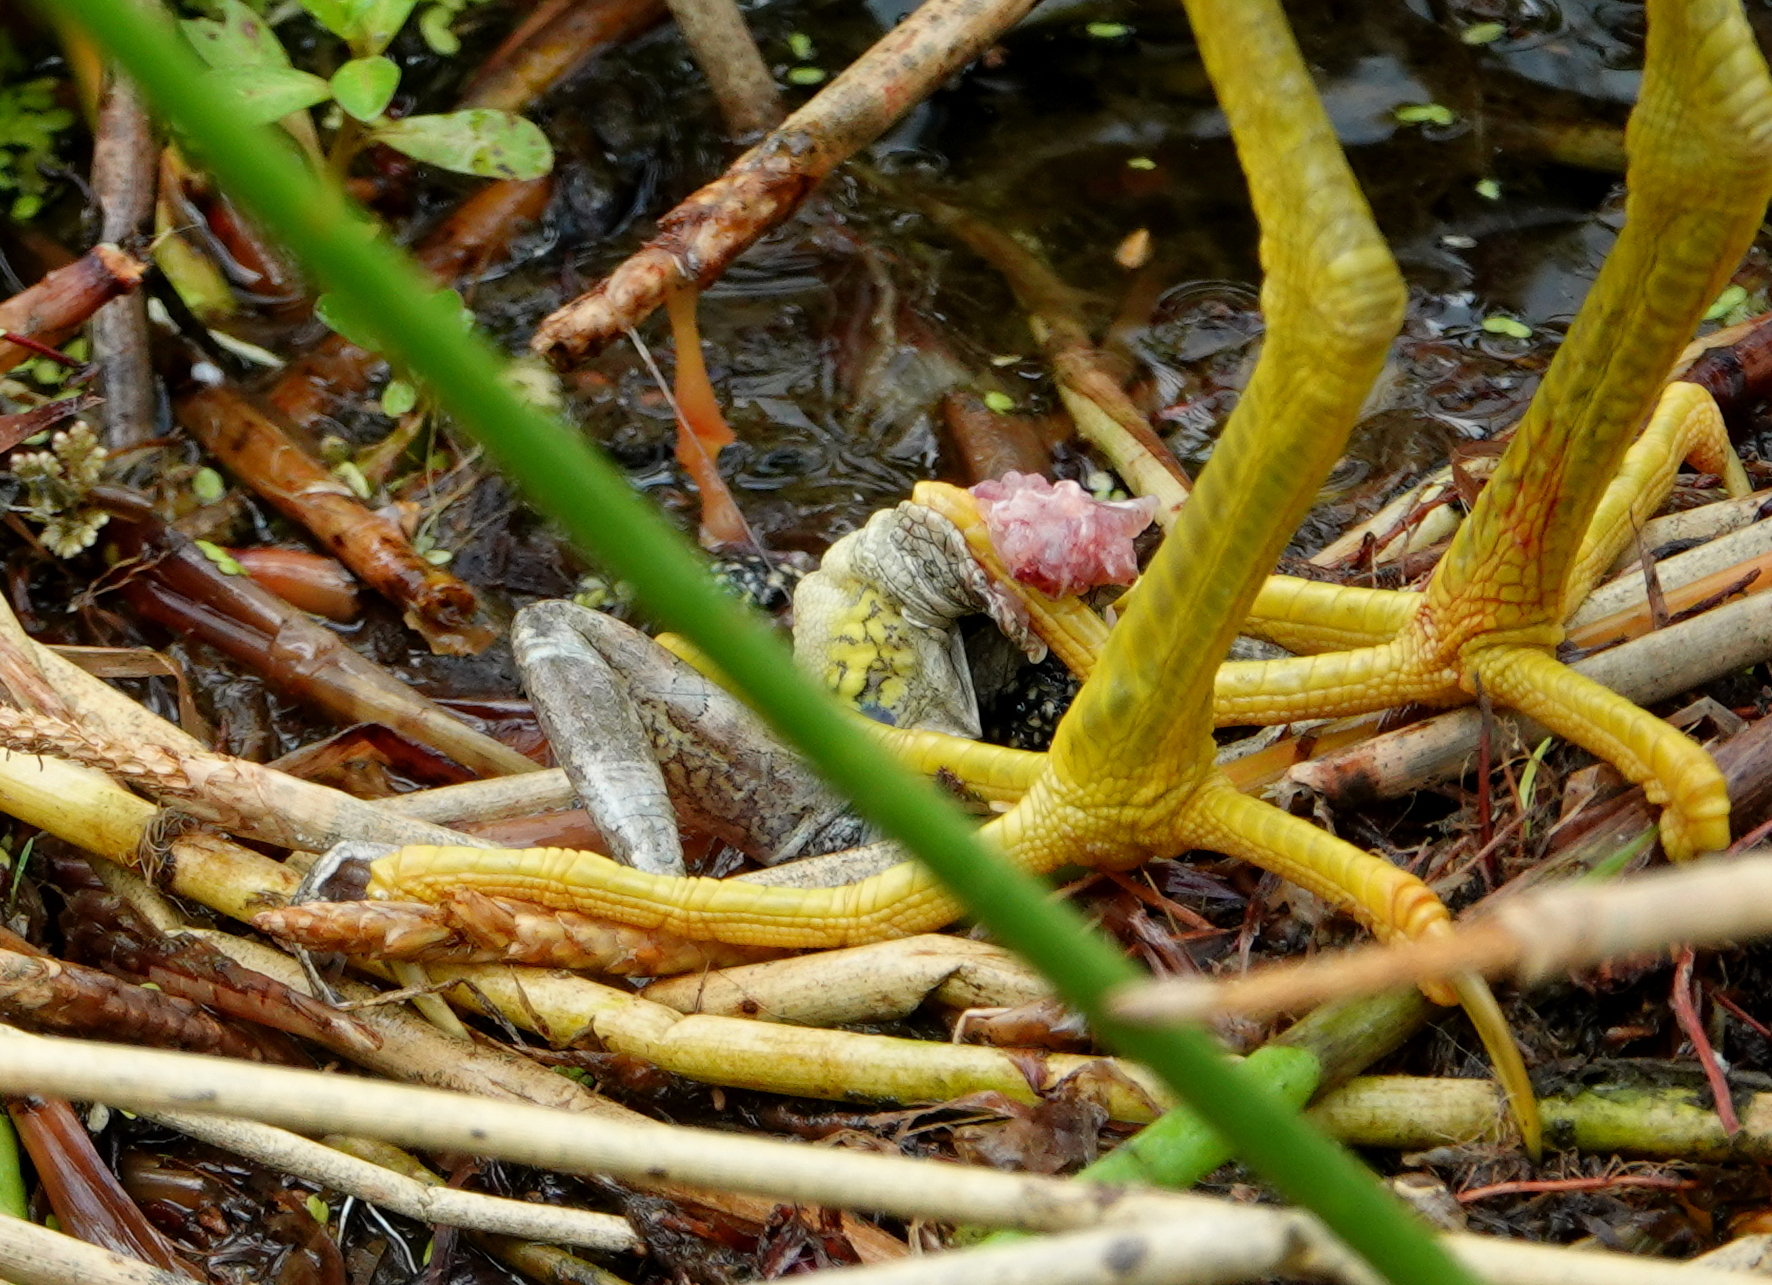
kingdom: Animalia
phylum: Chordata
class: Amphibia
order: Anura
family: Hylidae
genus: Osteopilus
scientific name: Osteopilus septentrionalis
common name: Cuban treefrog
